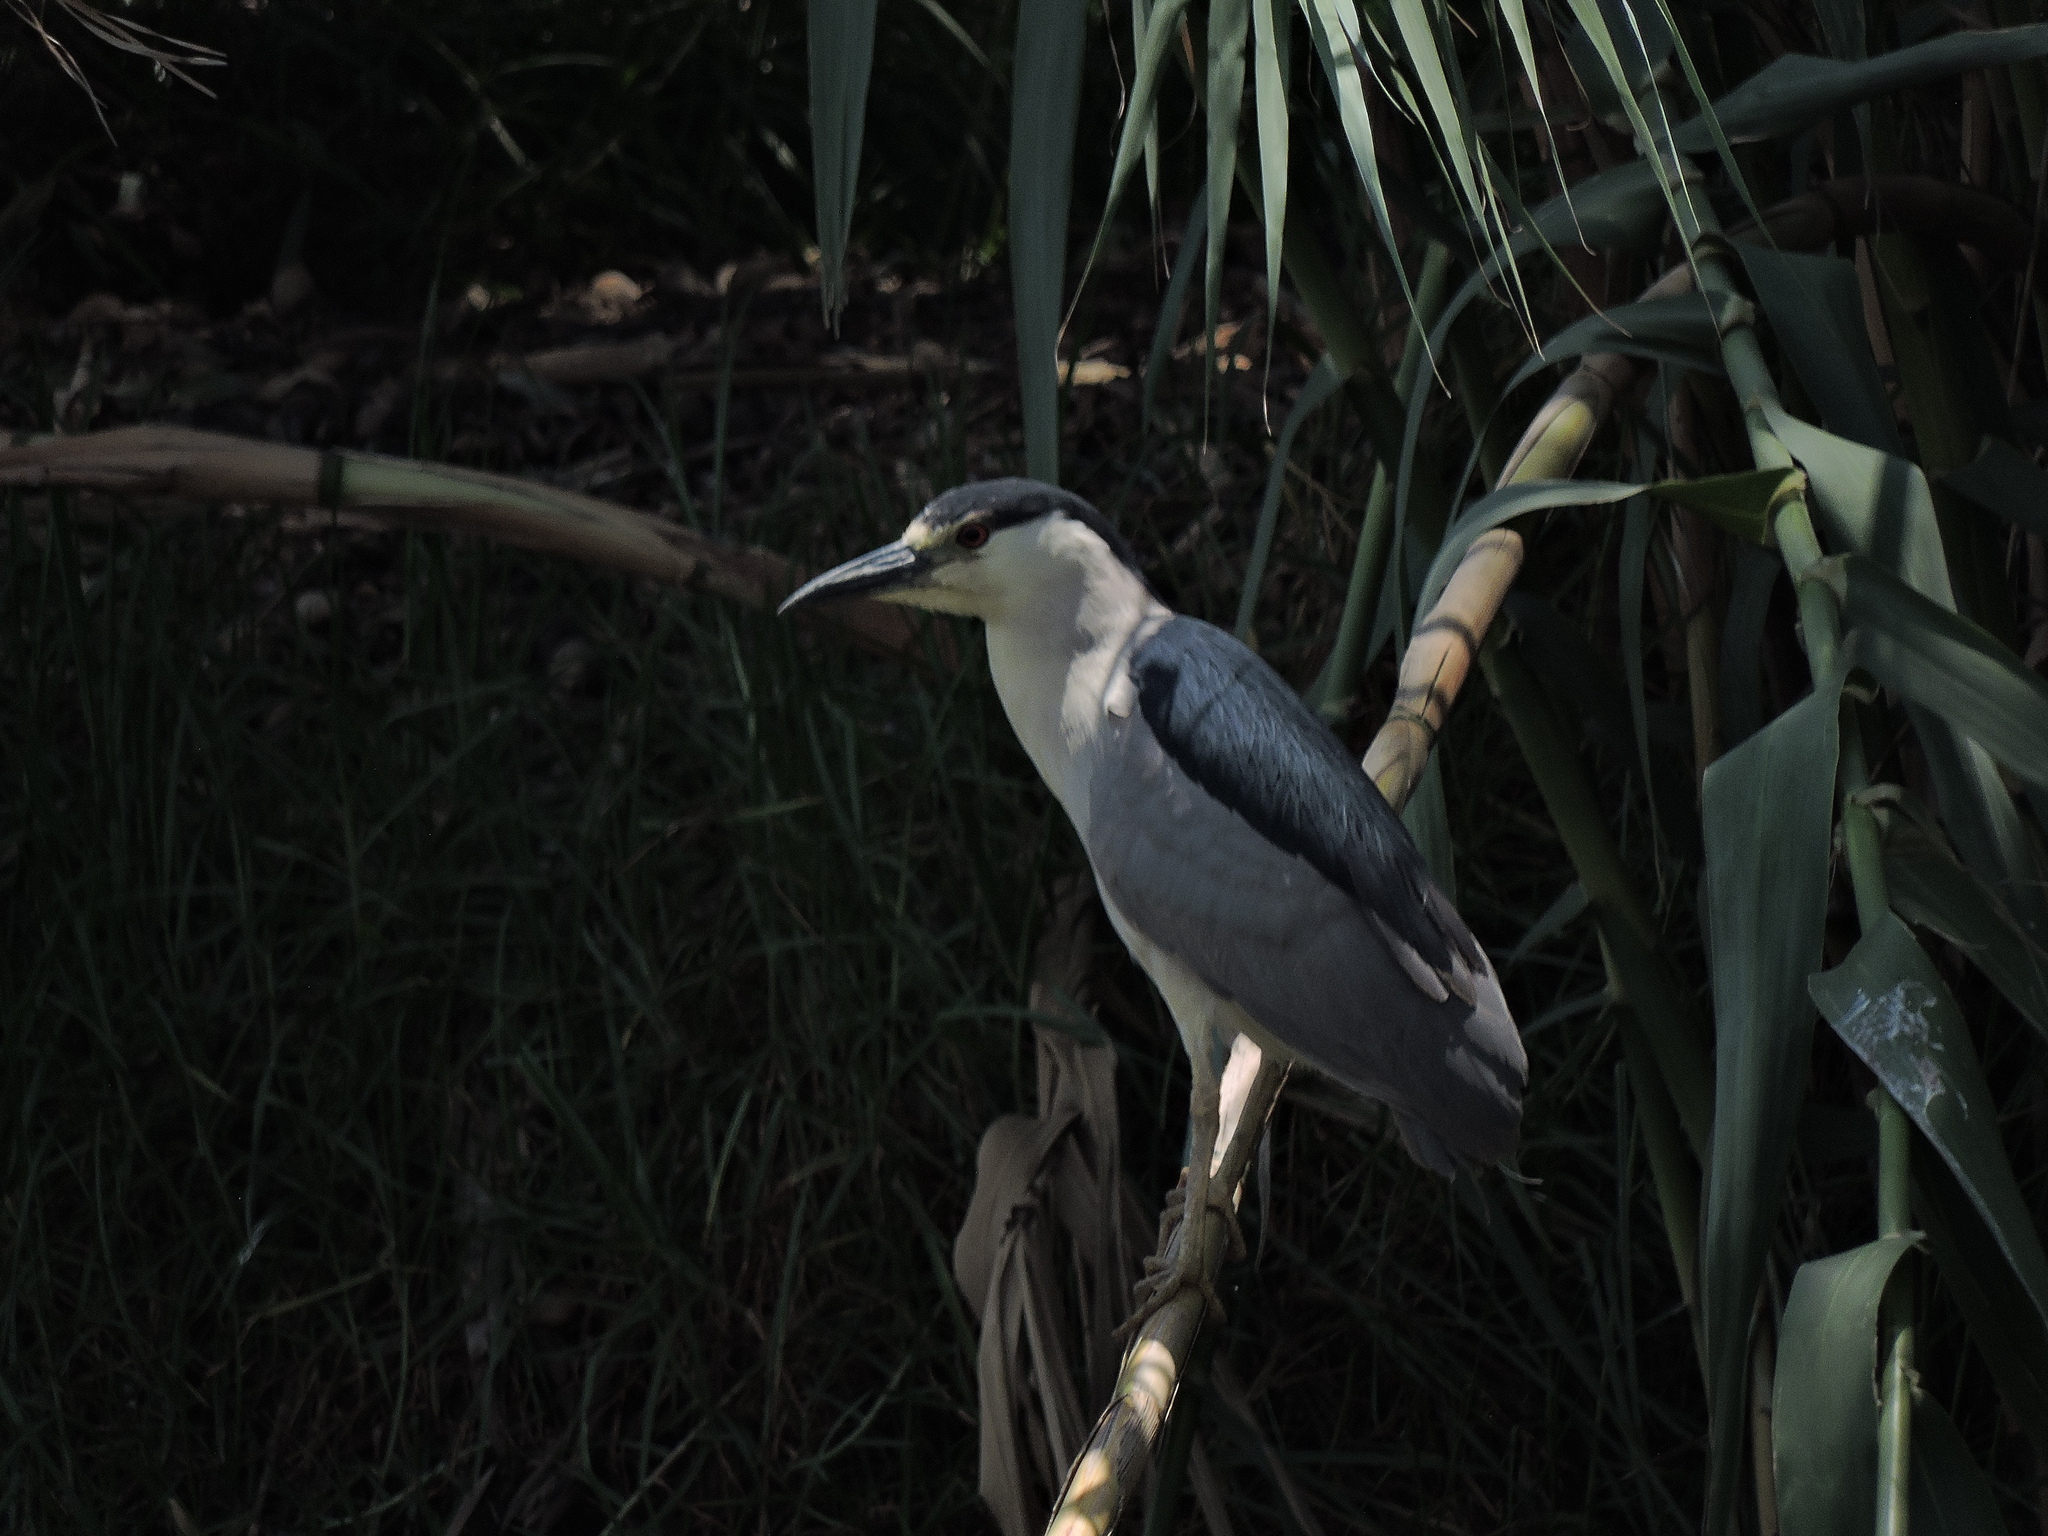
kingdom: Animalia
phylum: Chordata
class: Aves
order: Pelecaniformes
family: Ardeidae
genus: Nycticorax
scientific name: Nycticorax nycticorax
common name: Black-crowned night heron
